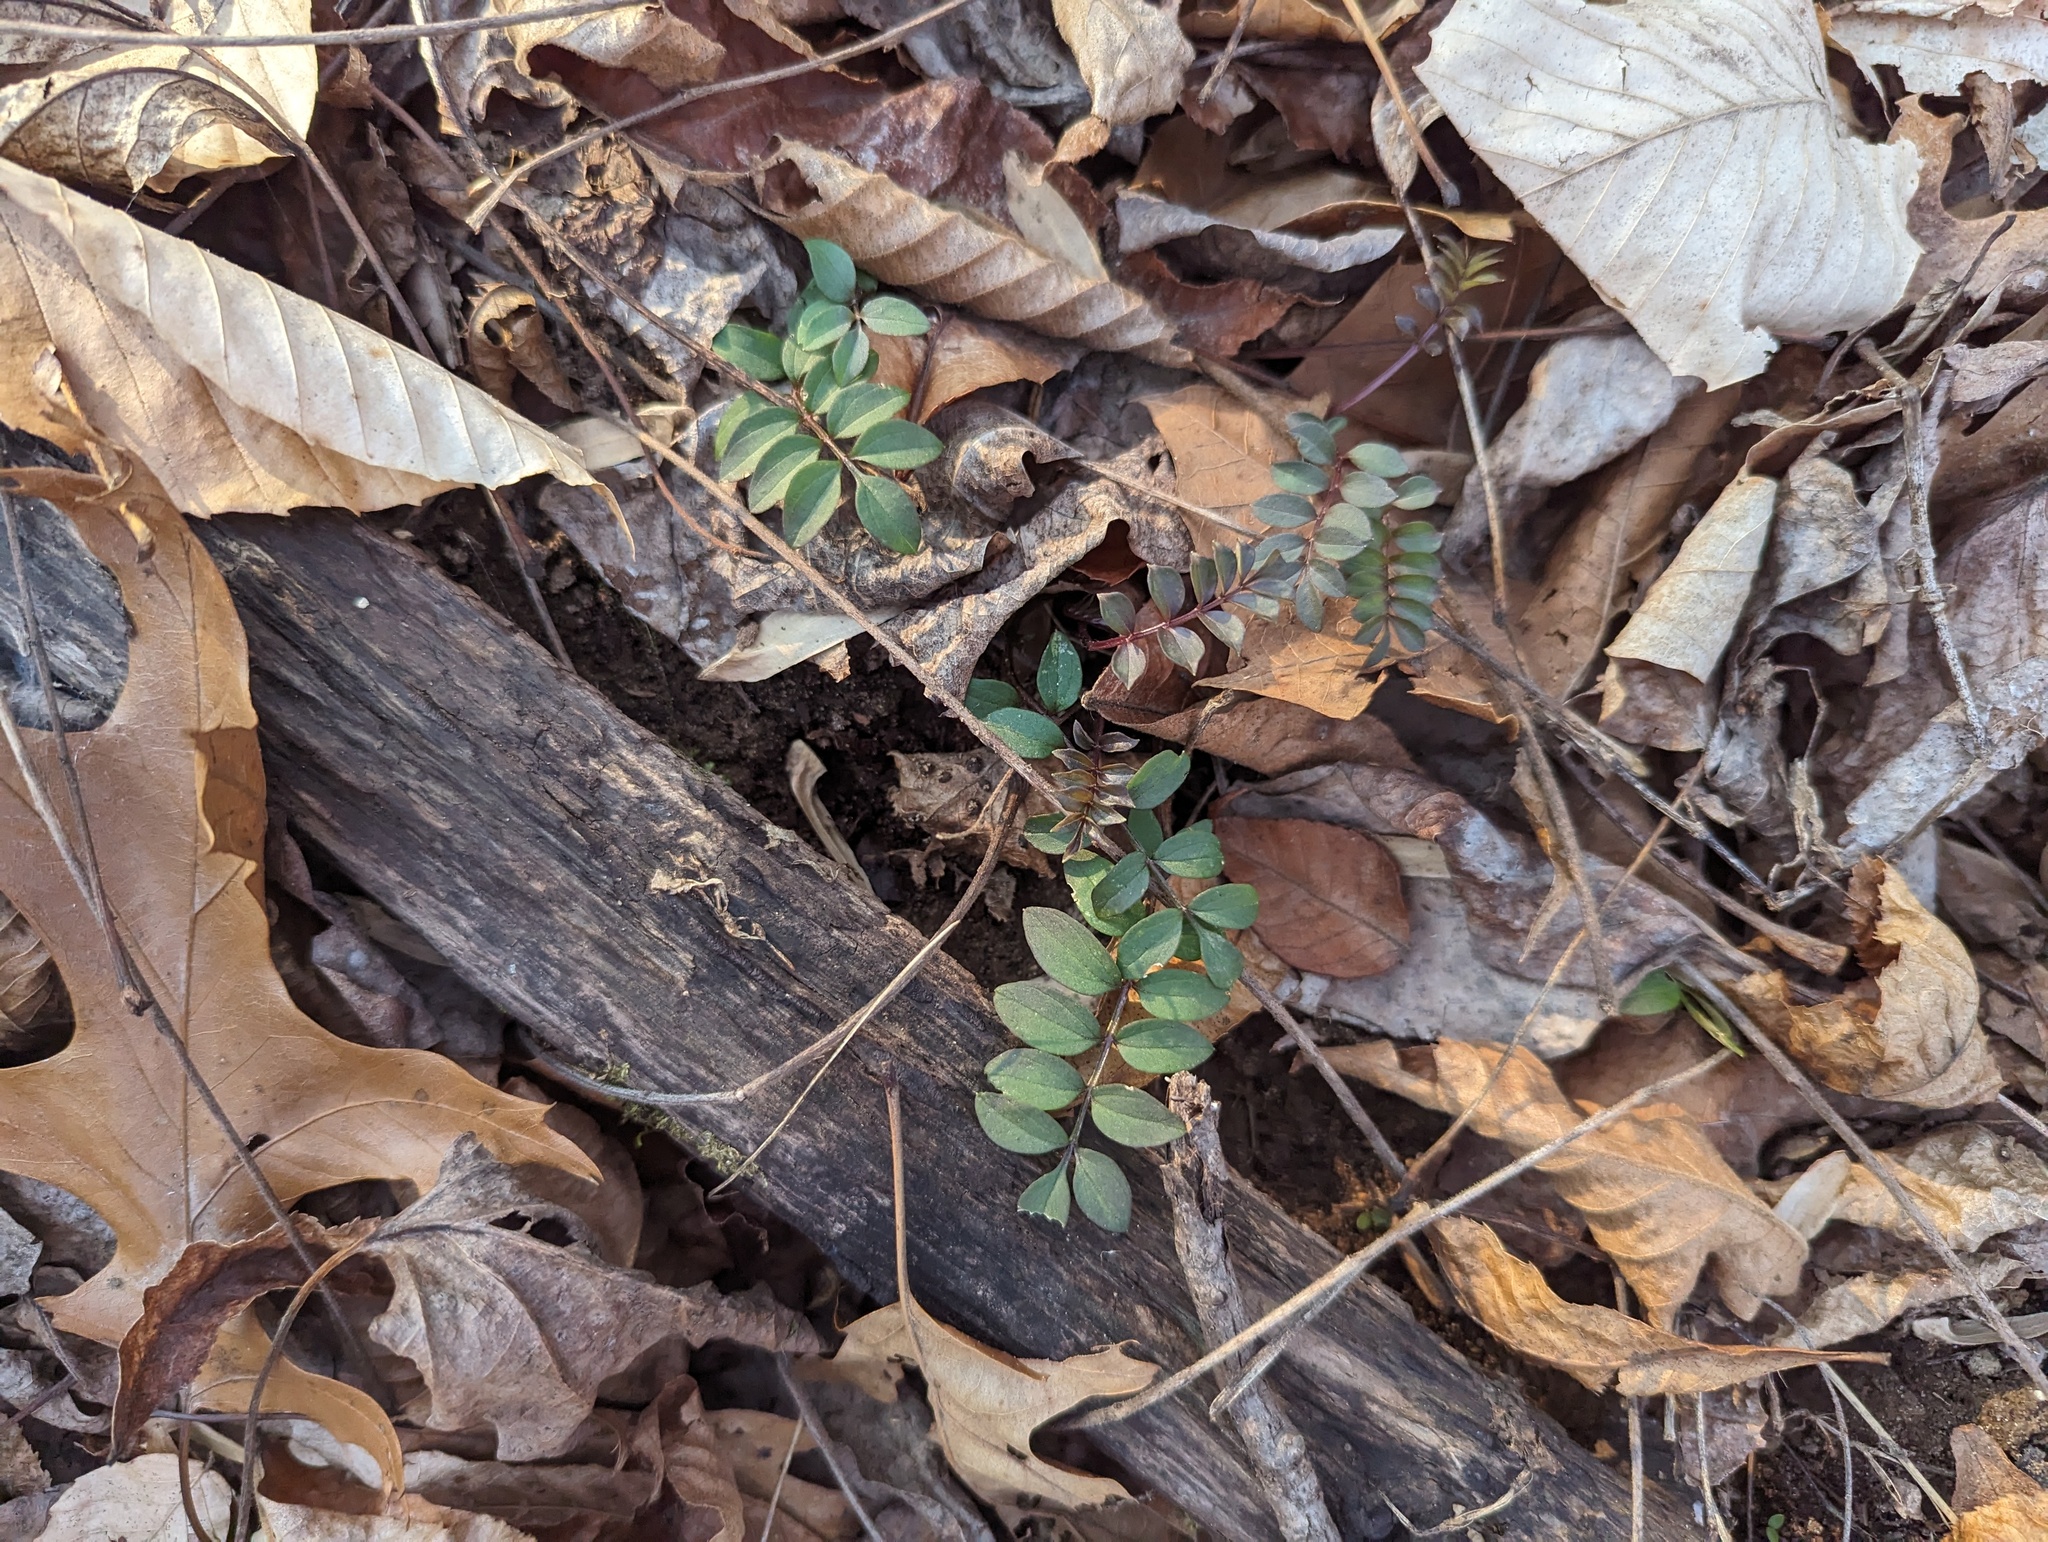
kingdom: Plantae
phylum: Tracheophyta
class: Magnoliopsida
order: Ericales
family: Polemoniaceae
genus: Polemonium
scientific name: Polemonium reptans
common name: Creeping jacob's-ladder
